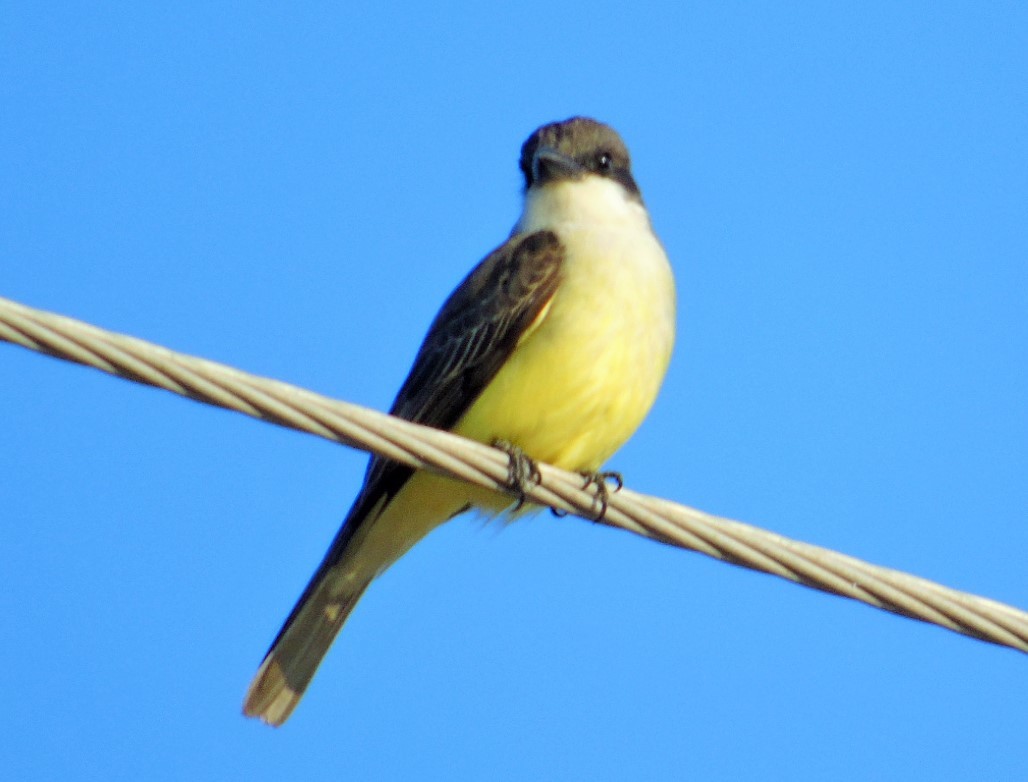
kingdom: Animalia
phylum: Chordata
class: Aves
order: Passeriformes
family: Tyrannidae
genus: Tyrannus
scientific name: Tyrannus crassirostris
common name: Thick-billed kingbird
